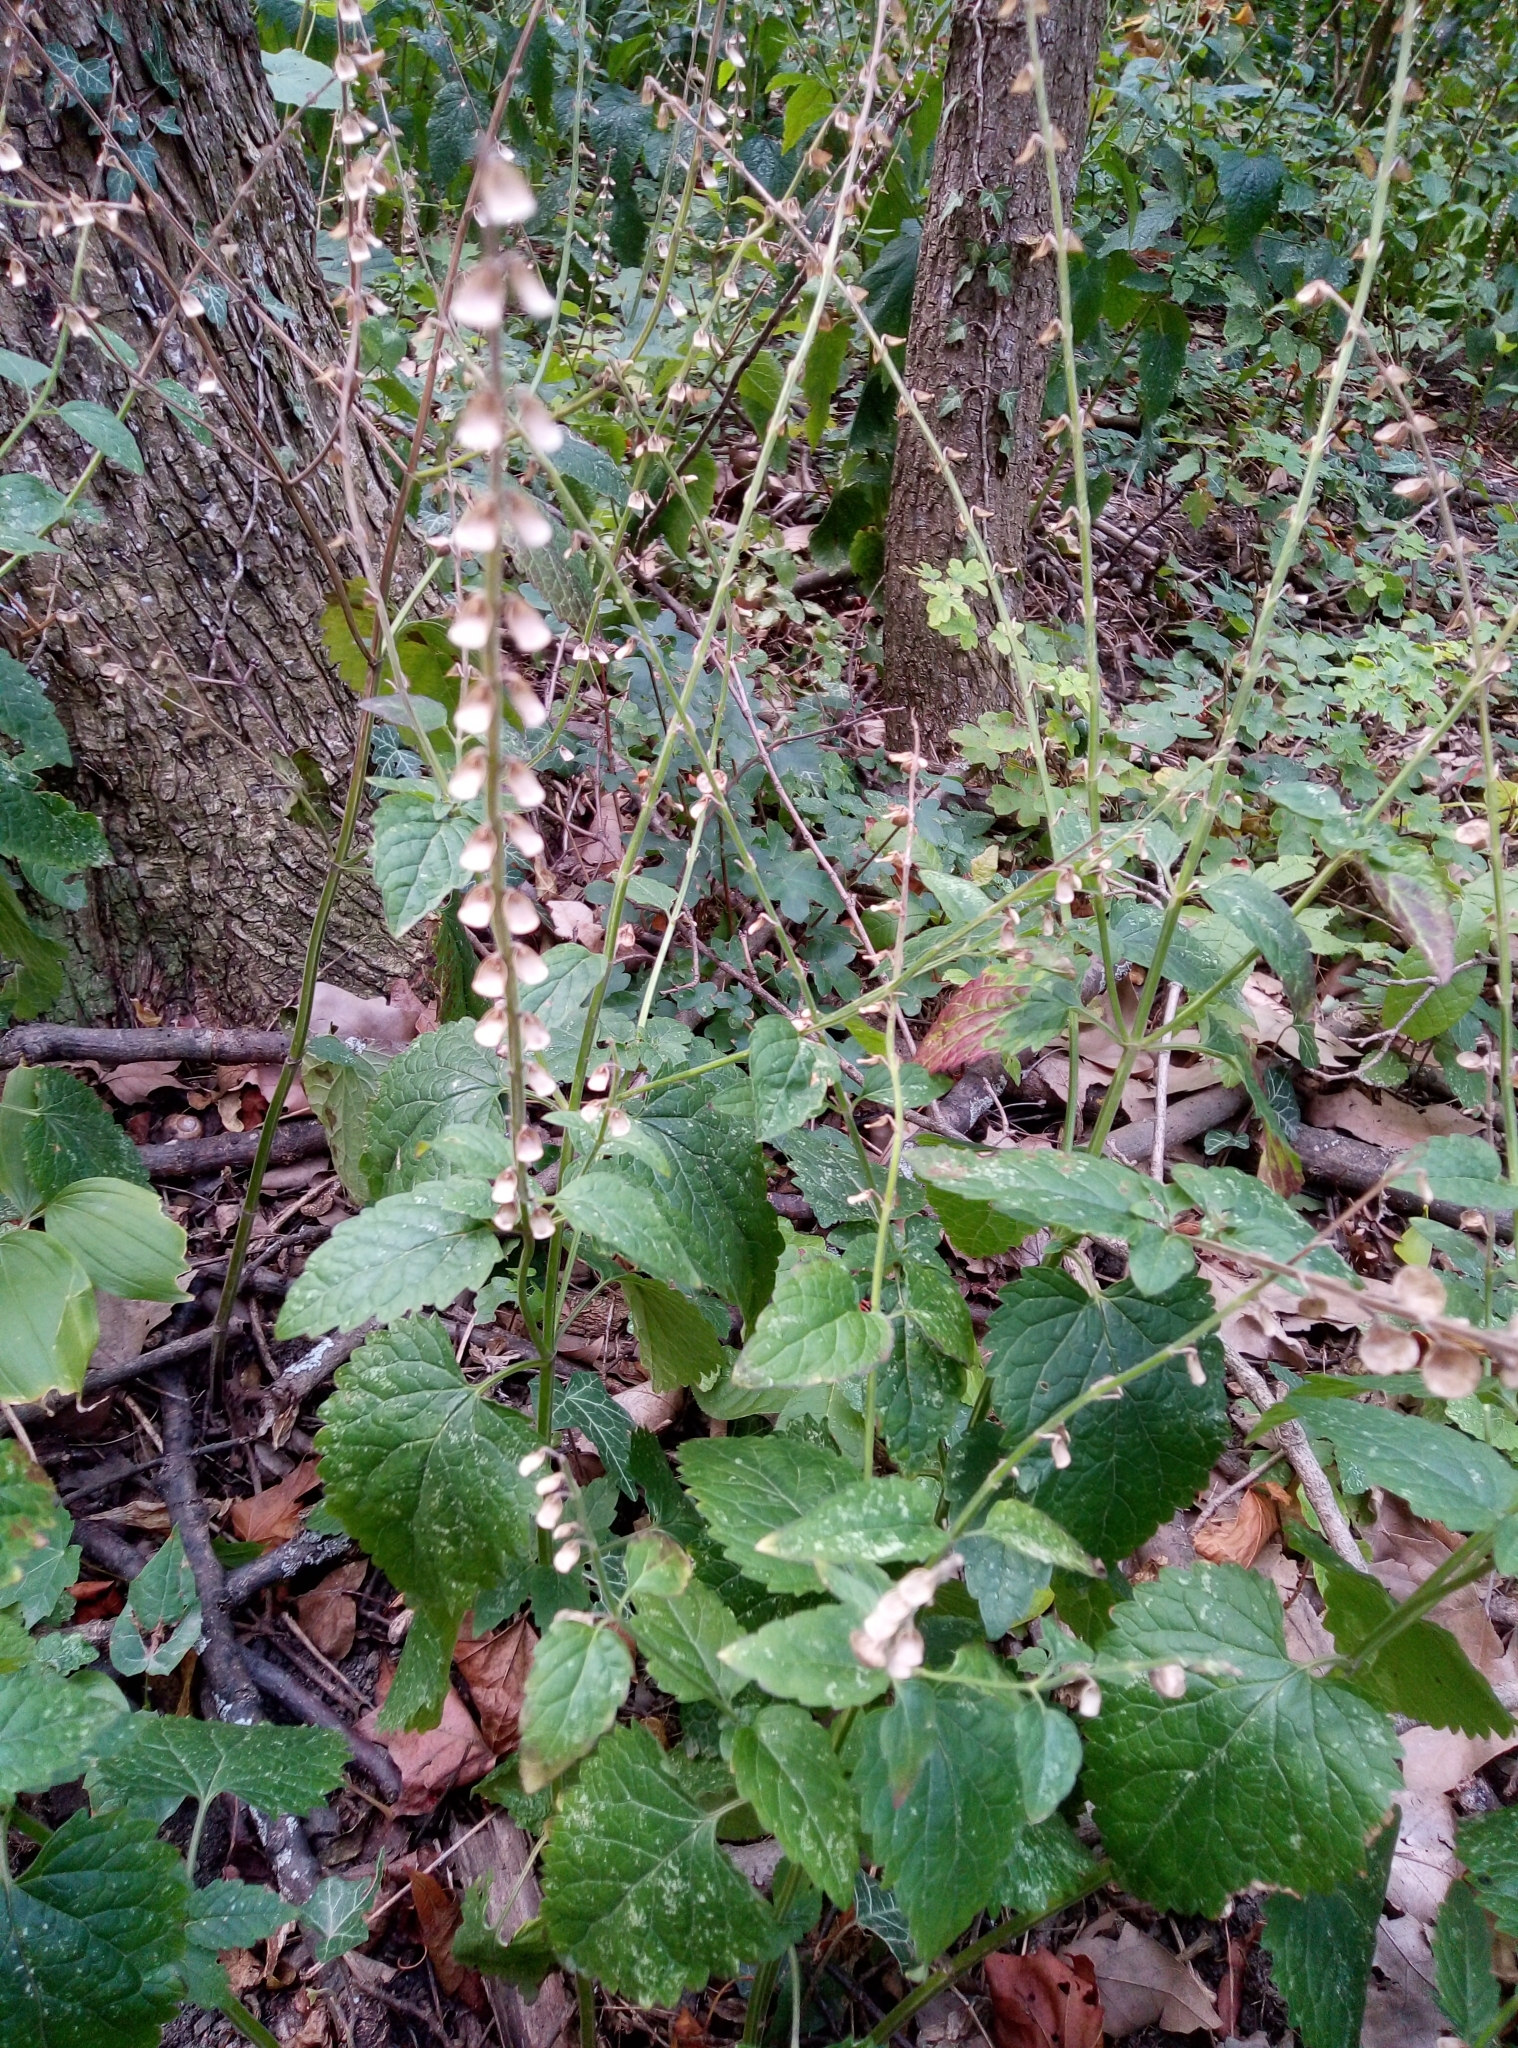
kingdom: Plantae
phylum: Tracheophyta
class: Magnoliopsida
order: Lamiales
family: Lamiaceae
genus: Scutellaria
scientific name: Scutellaria altissima
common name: Somerset skullcap
